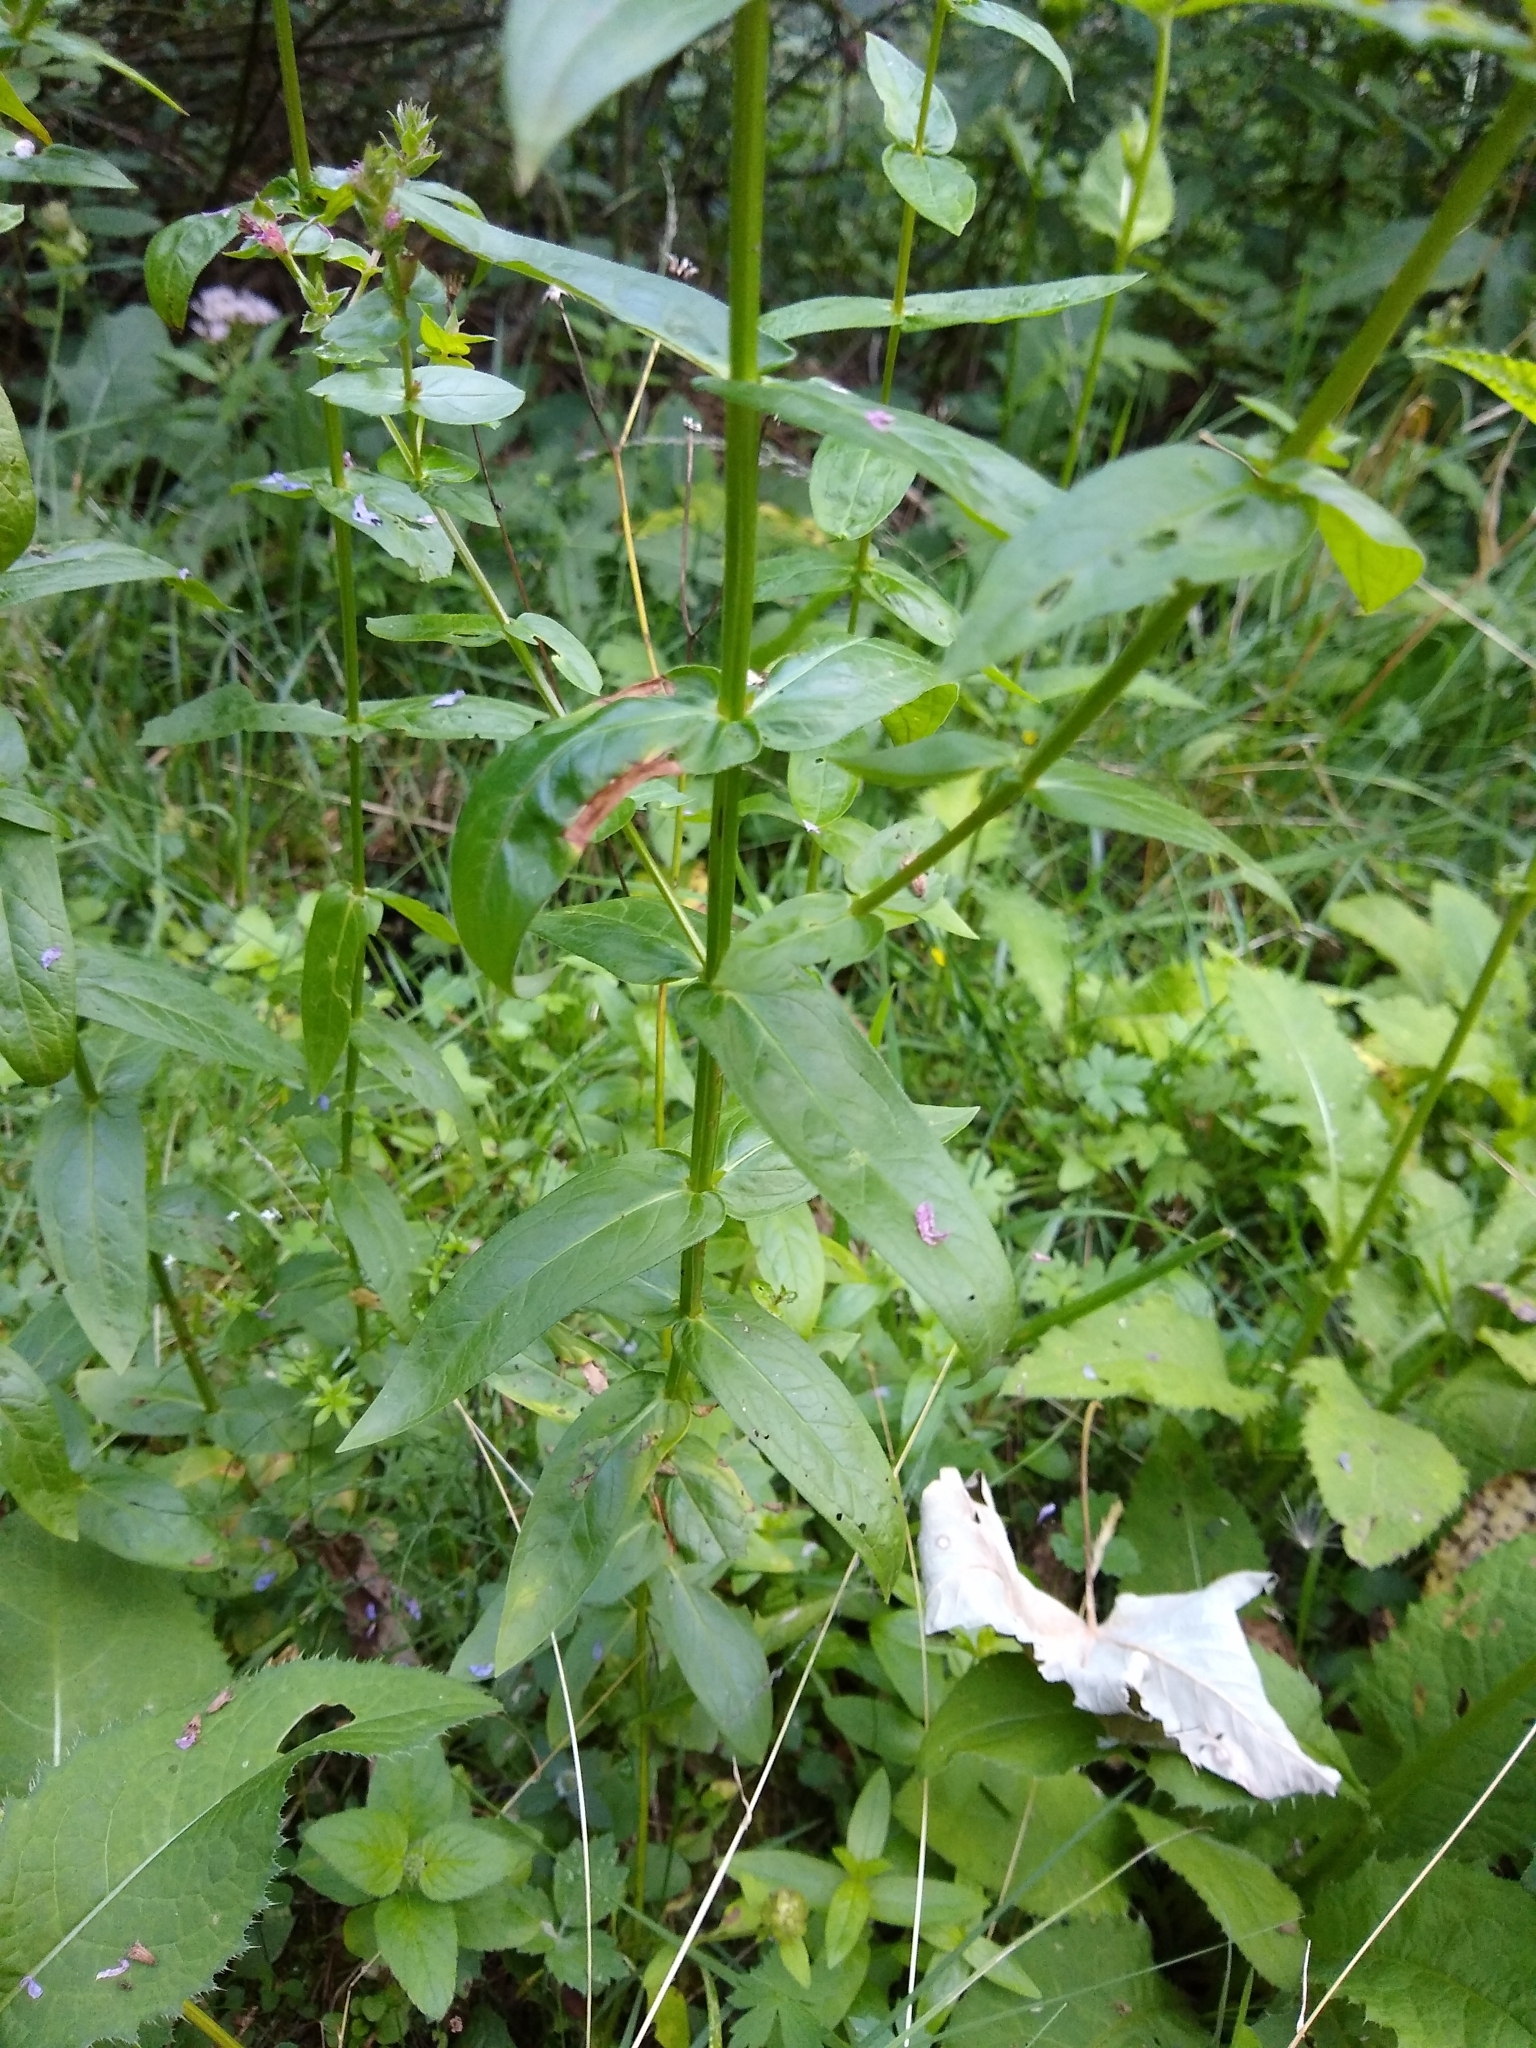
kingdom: Plantae
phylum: Tracheophyta
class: Magnoliopsida
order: Myrtales
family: Lythraceae
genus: Lythrum
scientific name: Lythrum salicaria
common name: Purple loosestrife
